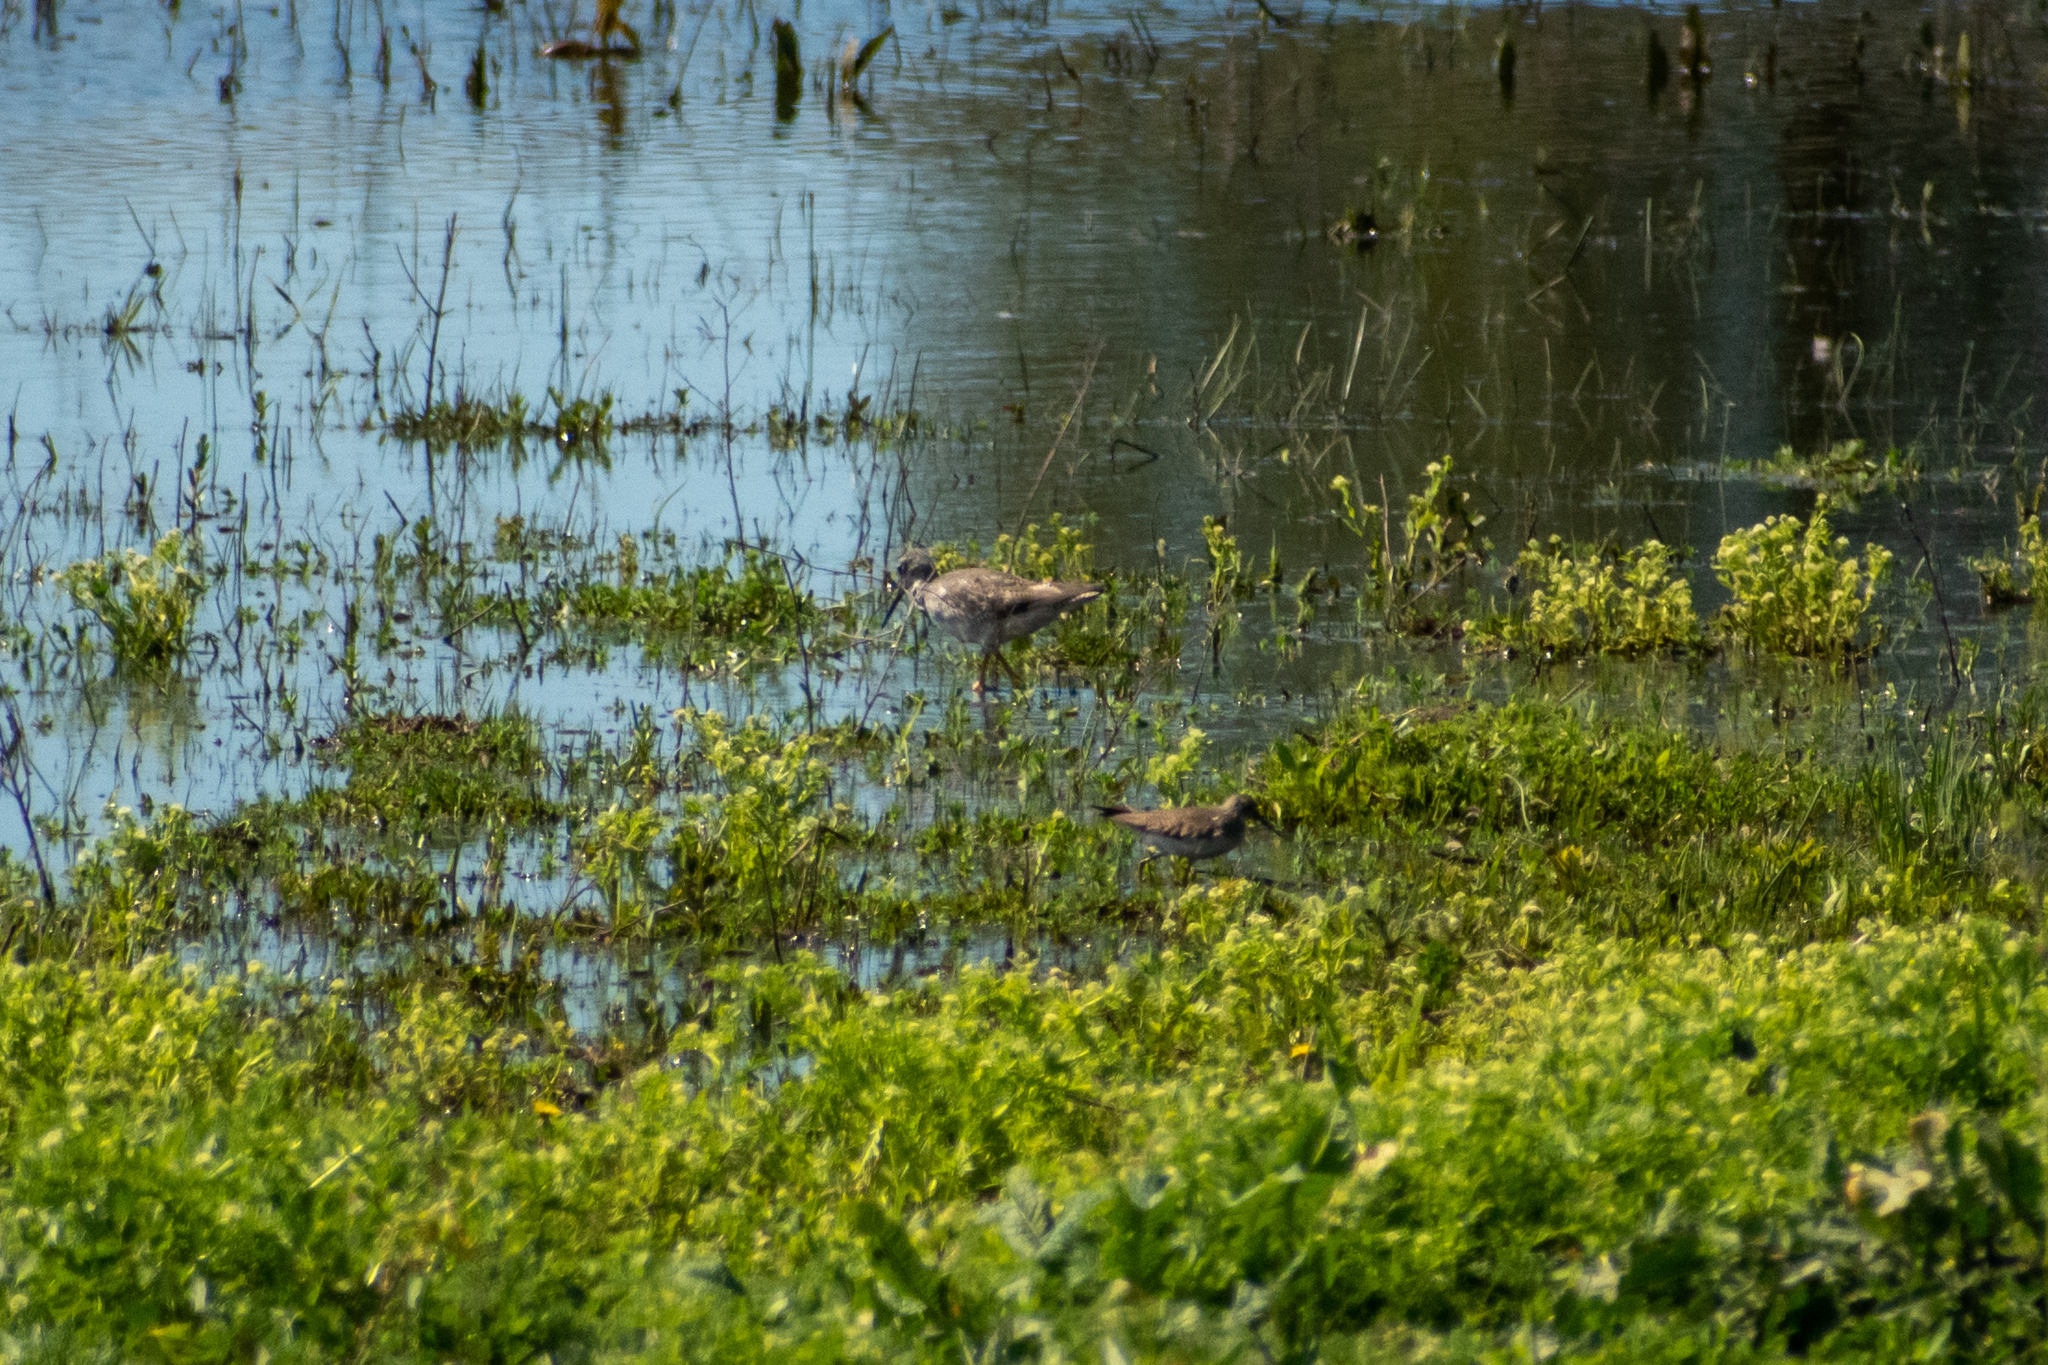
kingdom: Animalia
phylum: Chordata
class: Aves
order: Charadriiformes
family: Scolopacidae
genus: Tringa
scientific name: Tringa melanoleuca
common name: Greater yellowlegs
